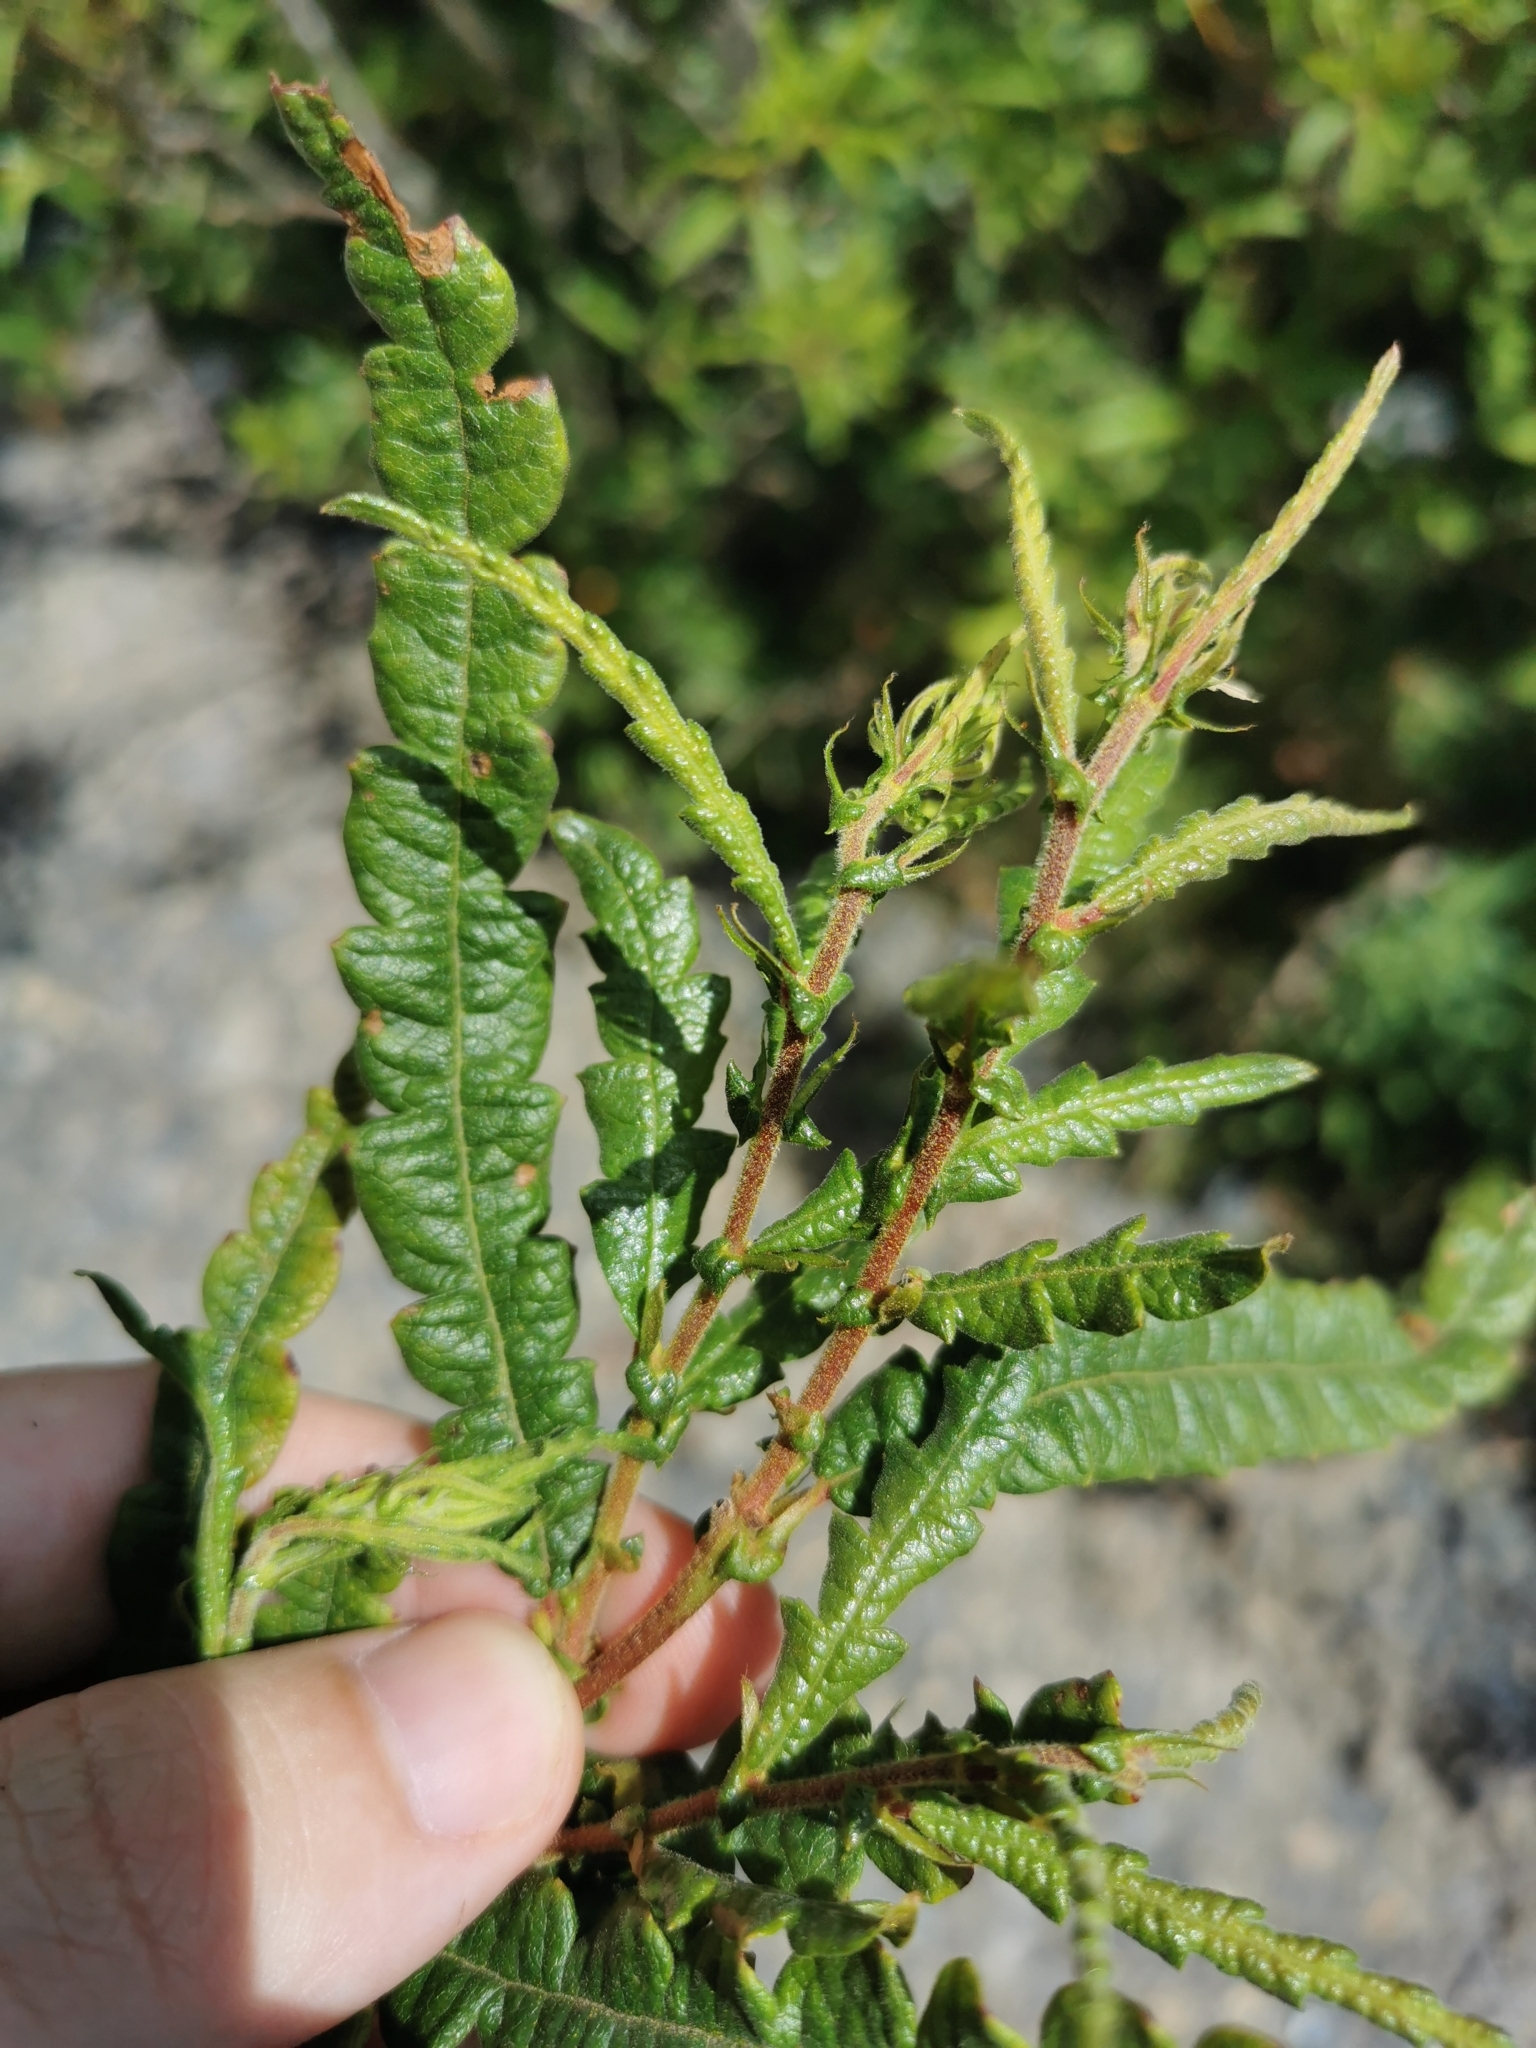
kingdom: Plantae
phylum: Tracheophyta
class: Magnoliopsida
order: Fagales
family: Myricaceae
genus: Comptonia
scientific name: Comptonia peregrina
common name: Sweet-fern
